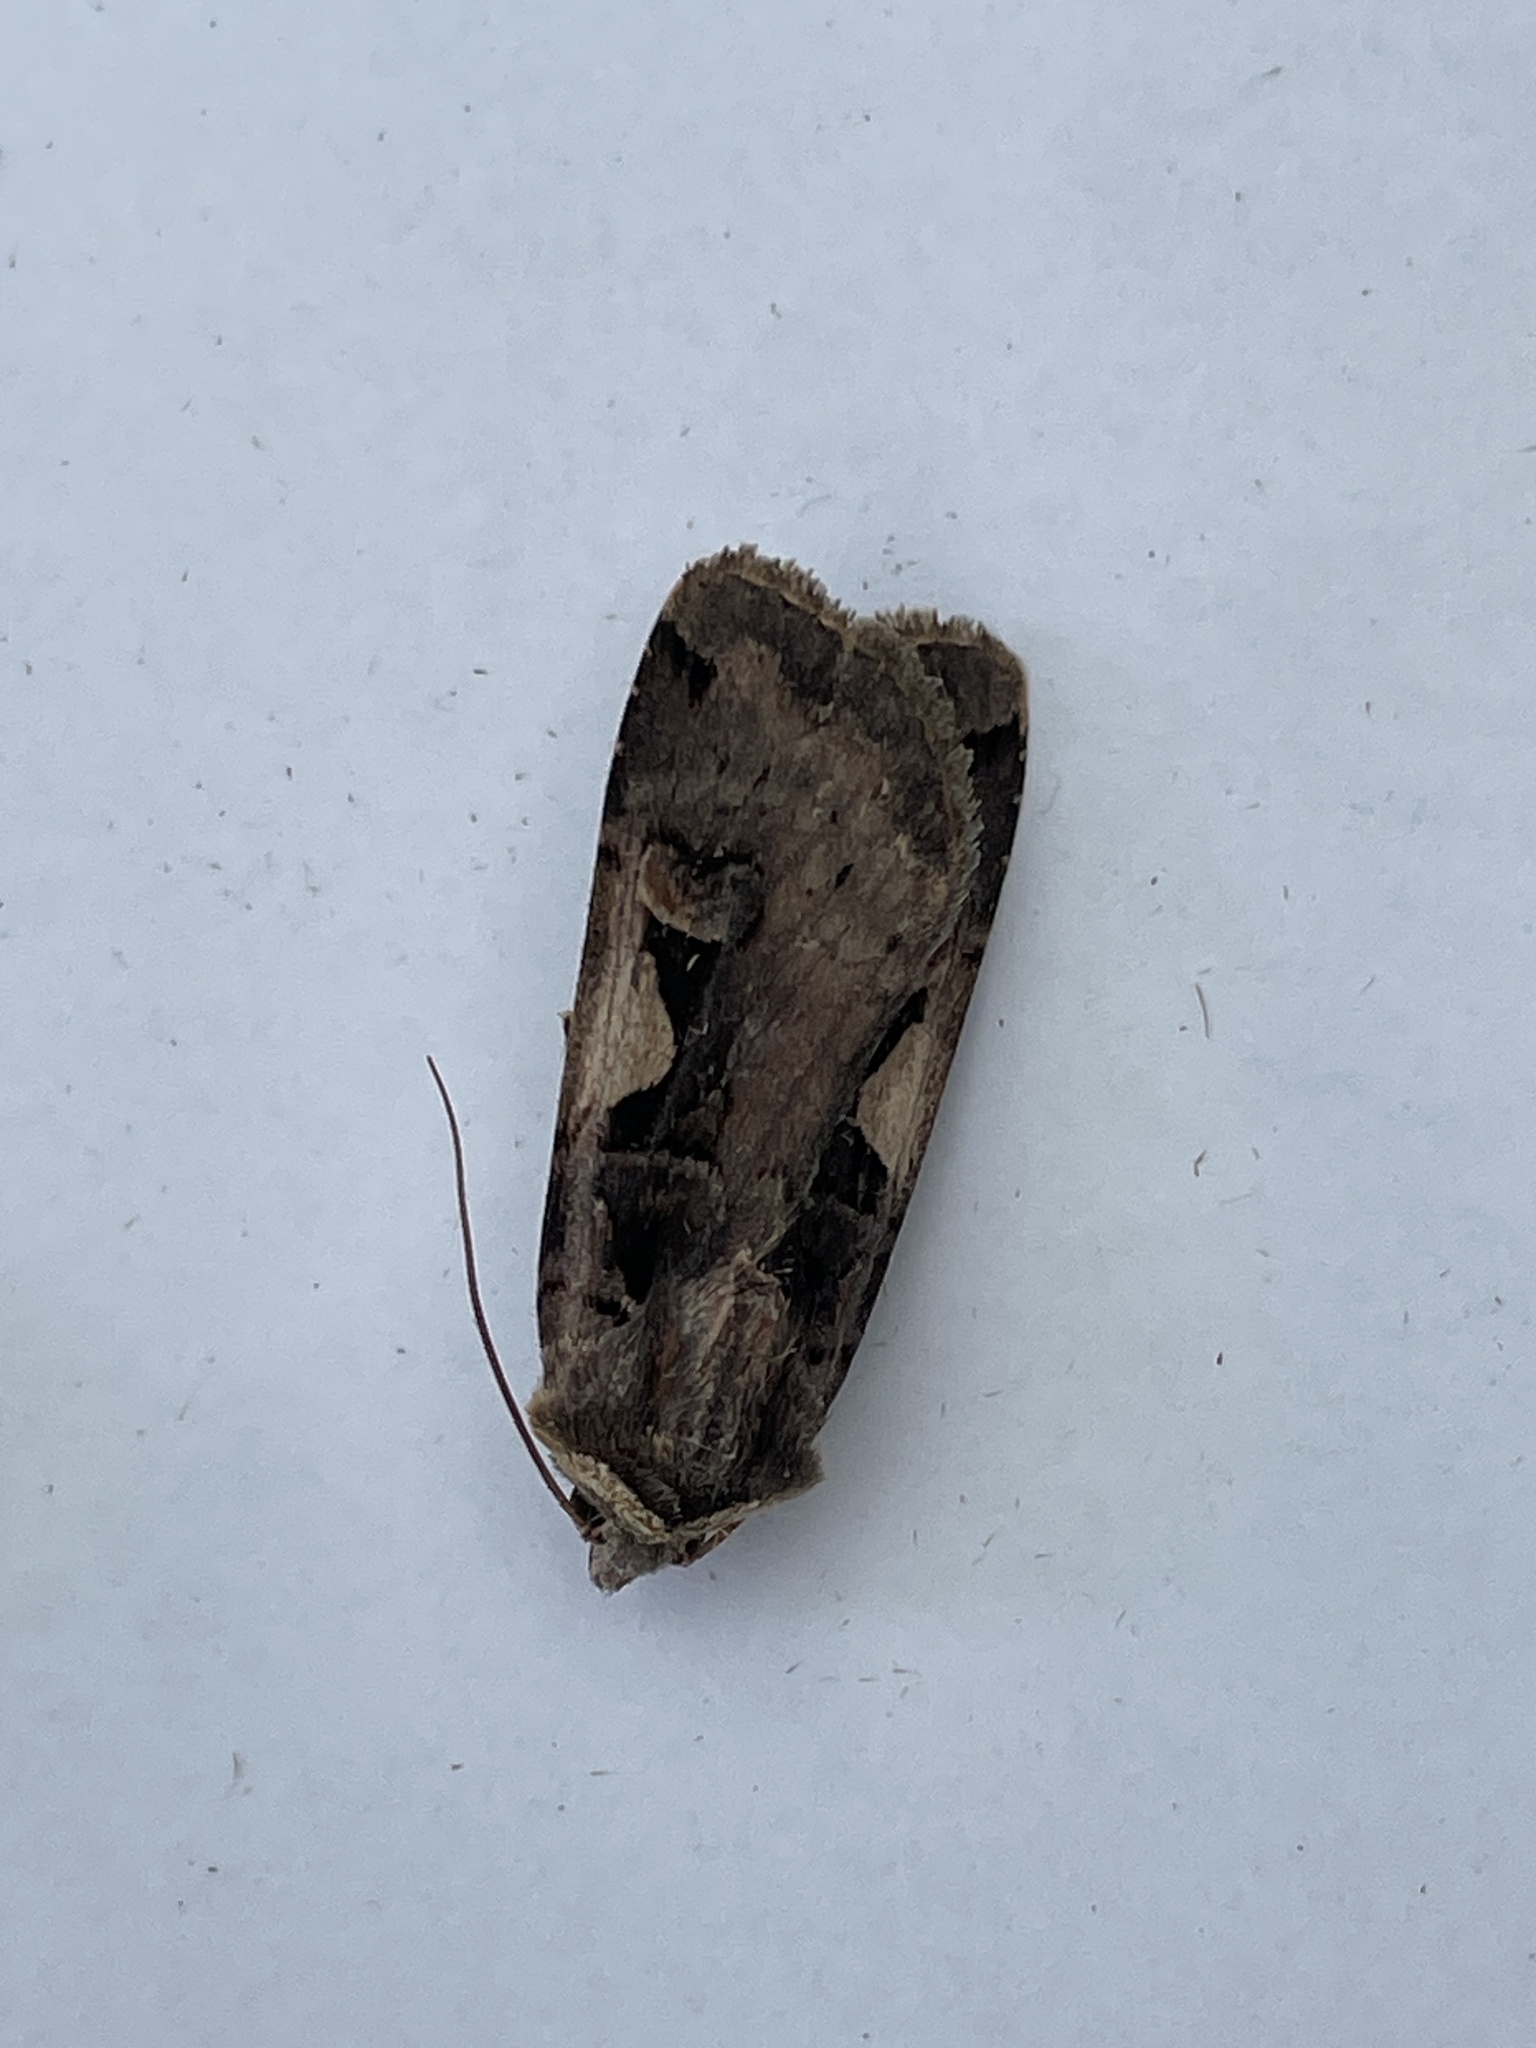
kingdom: Animalia
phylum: Arthropoda
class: Insecta
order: Lepidoptera
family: Noctuidae
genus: Xestia
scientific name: Xestia c-nigrum
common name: Setaceous hebrew character
